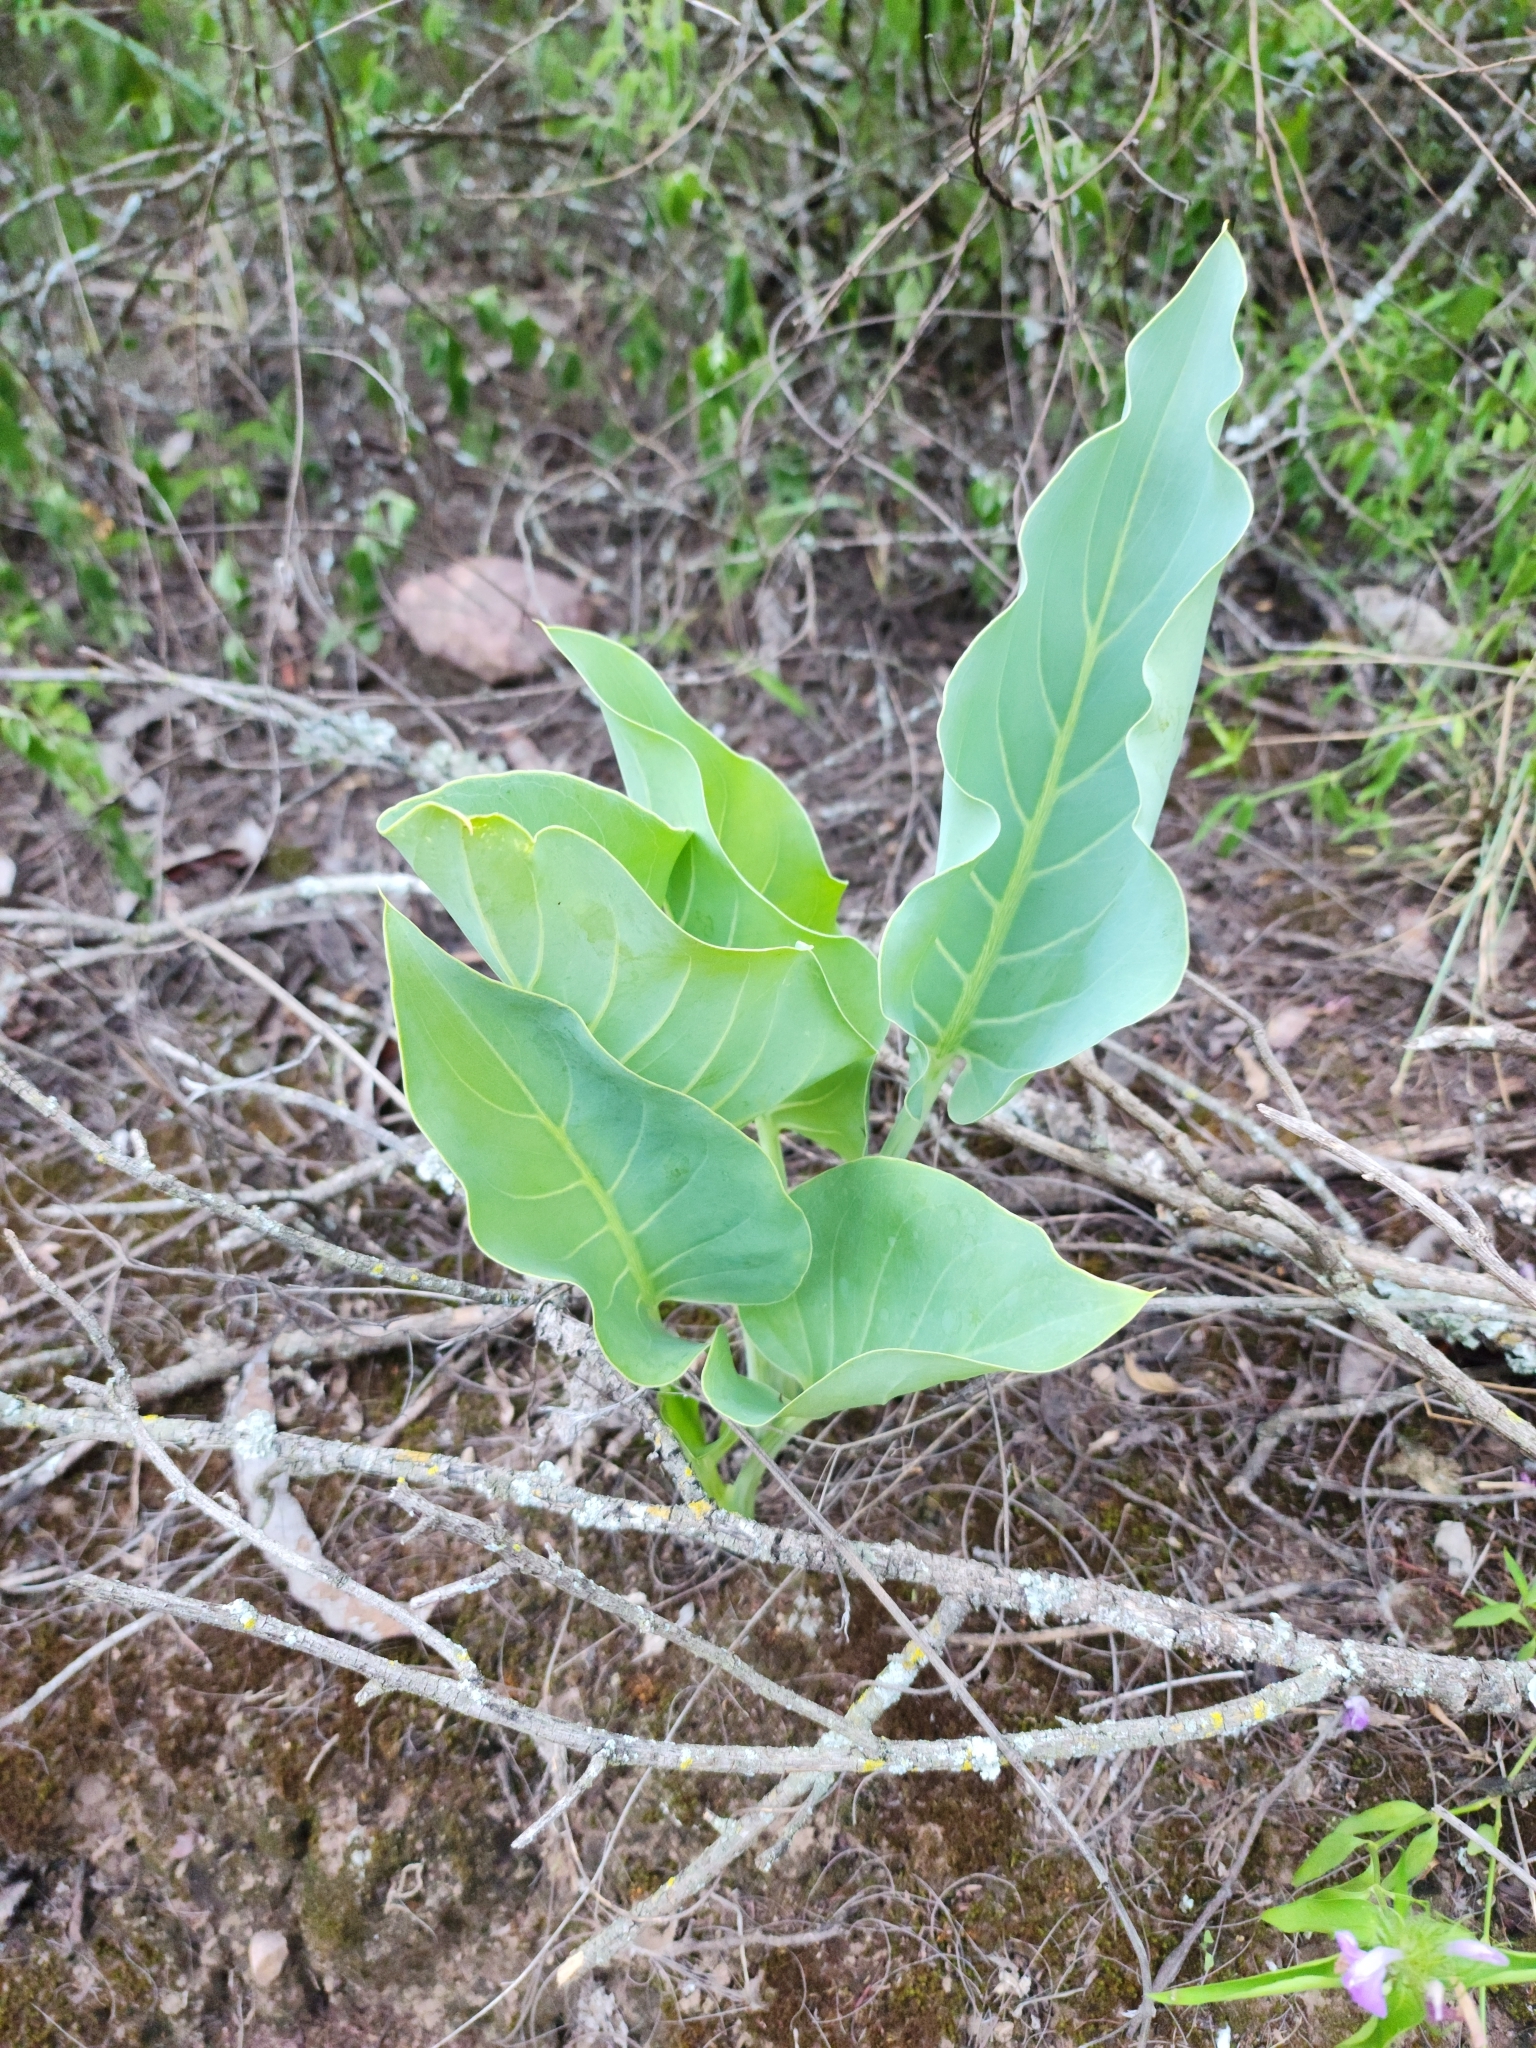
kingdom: Plantae
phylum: Tracheophyta
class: Liliopsida
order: Alismatales
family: Araceae
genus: Synandrospadix
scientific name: Synandrospadix vermitoxicus
